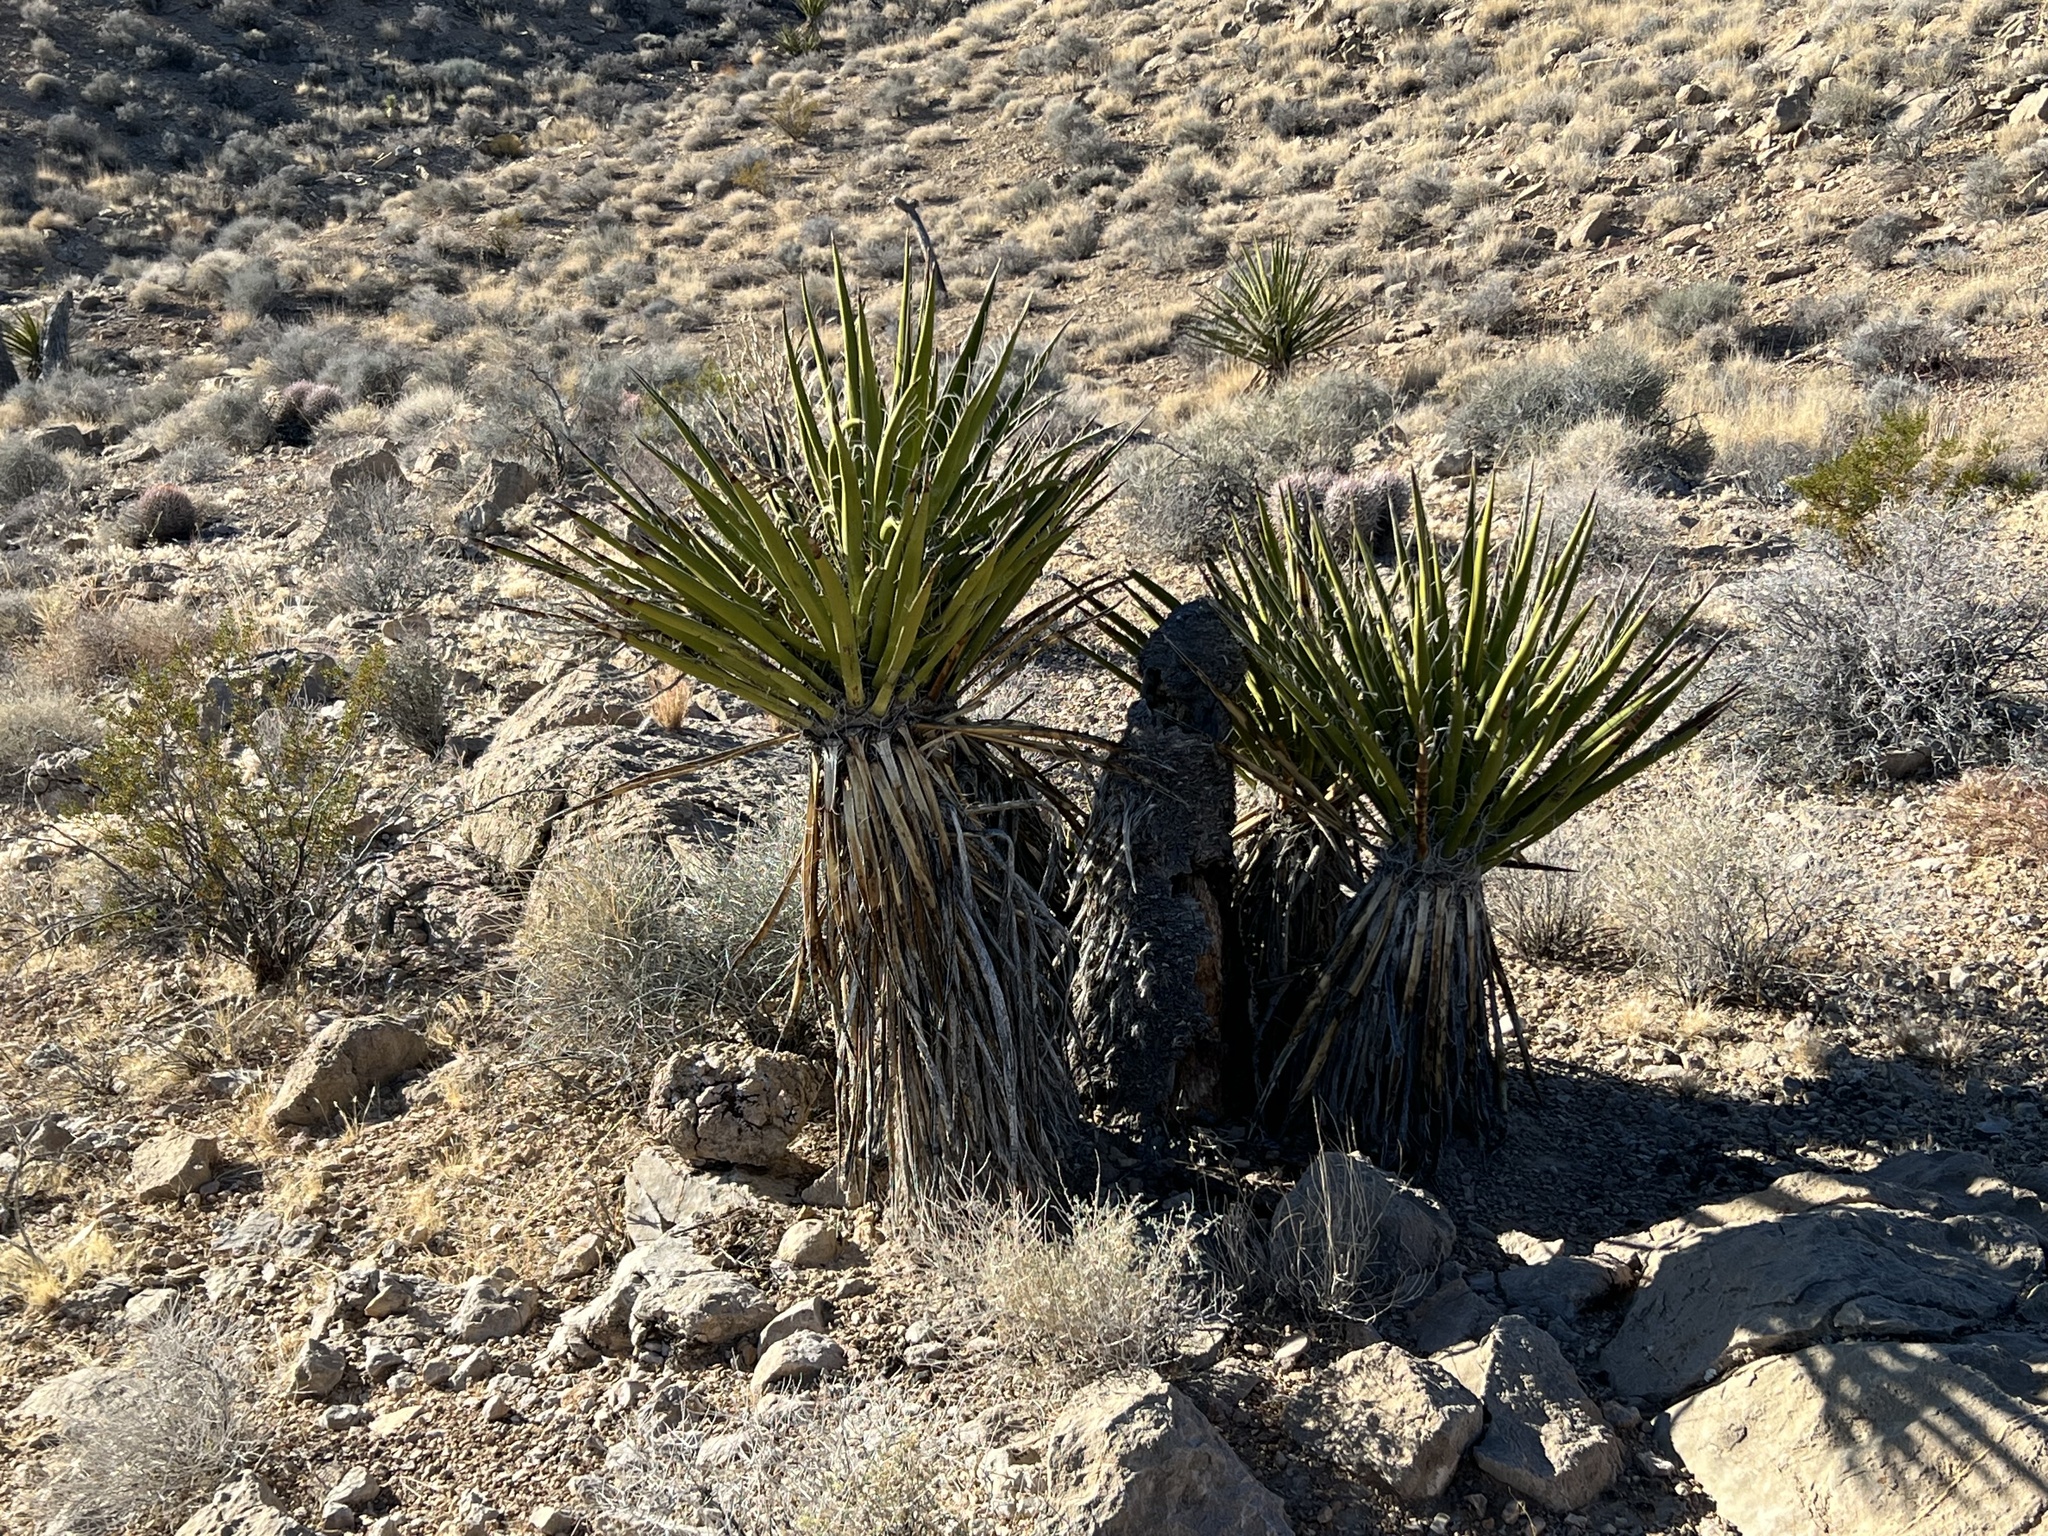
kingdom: Plantae
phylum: Tracheophyta
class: Liliopsida
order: Asparagales
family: Asparagaceae
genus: Yucca
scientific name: Yucca schidigera
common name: Mojave yucca
